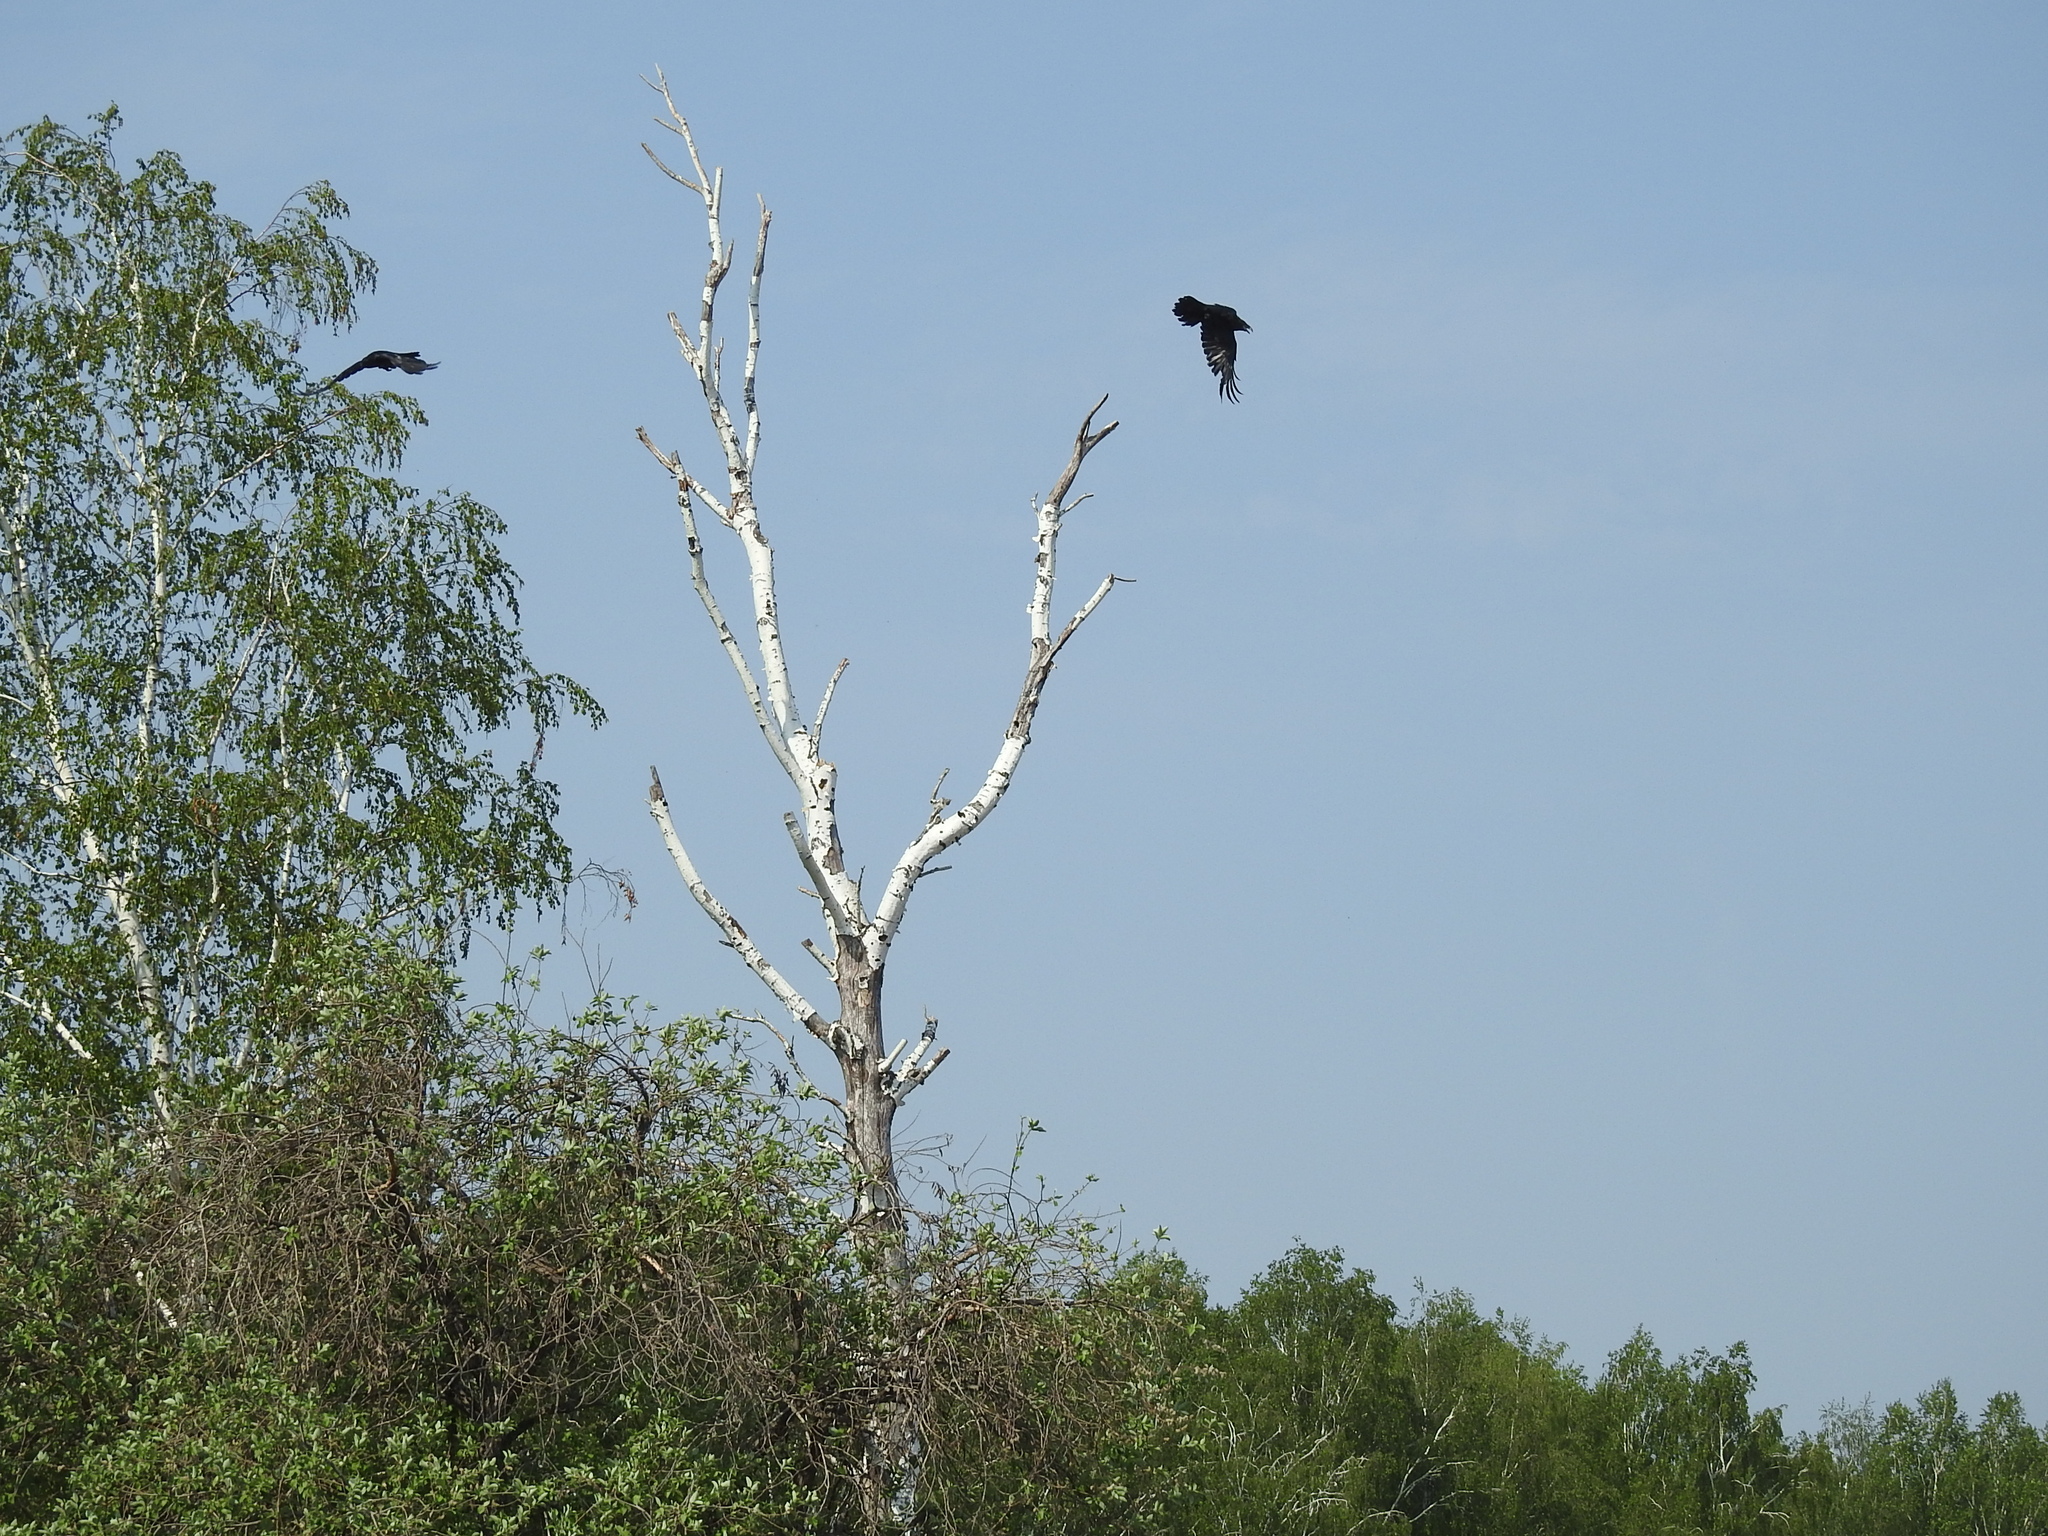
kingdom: Animalia
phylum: Chordata
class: Aves
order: Passeriformes
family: Corvidae
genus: Corvus
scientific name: Corvus corax
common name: Common raven
